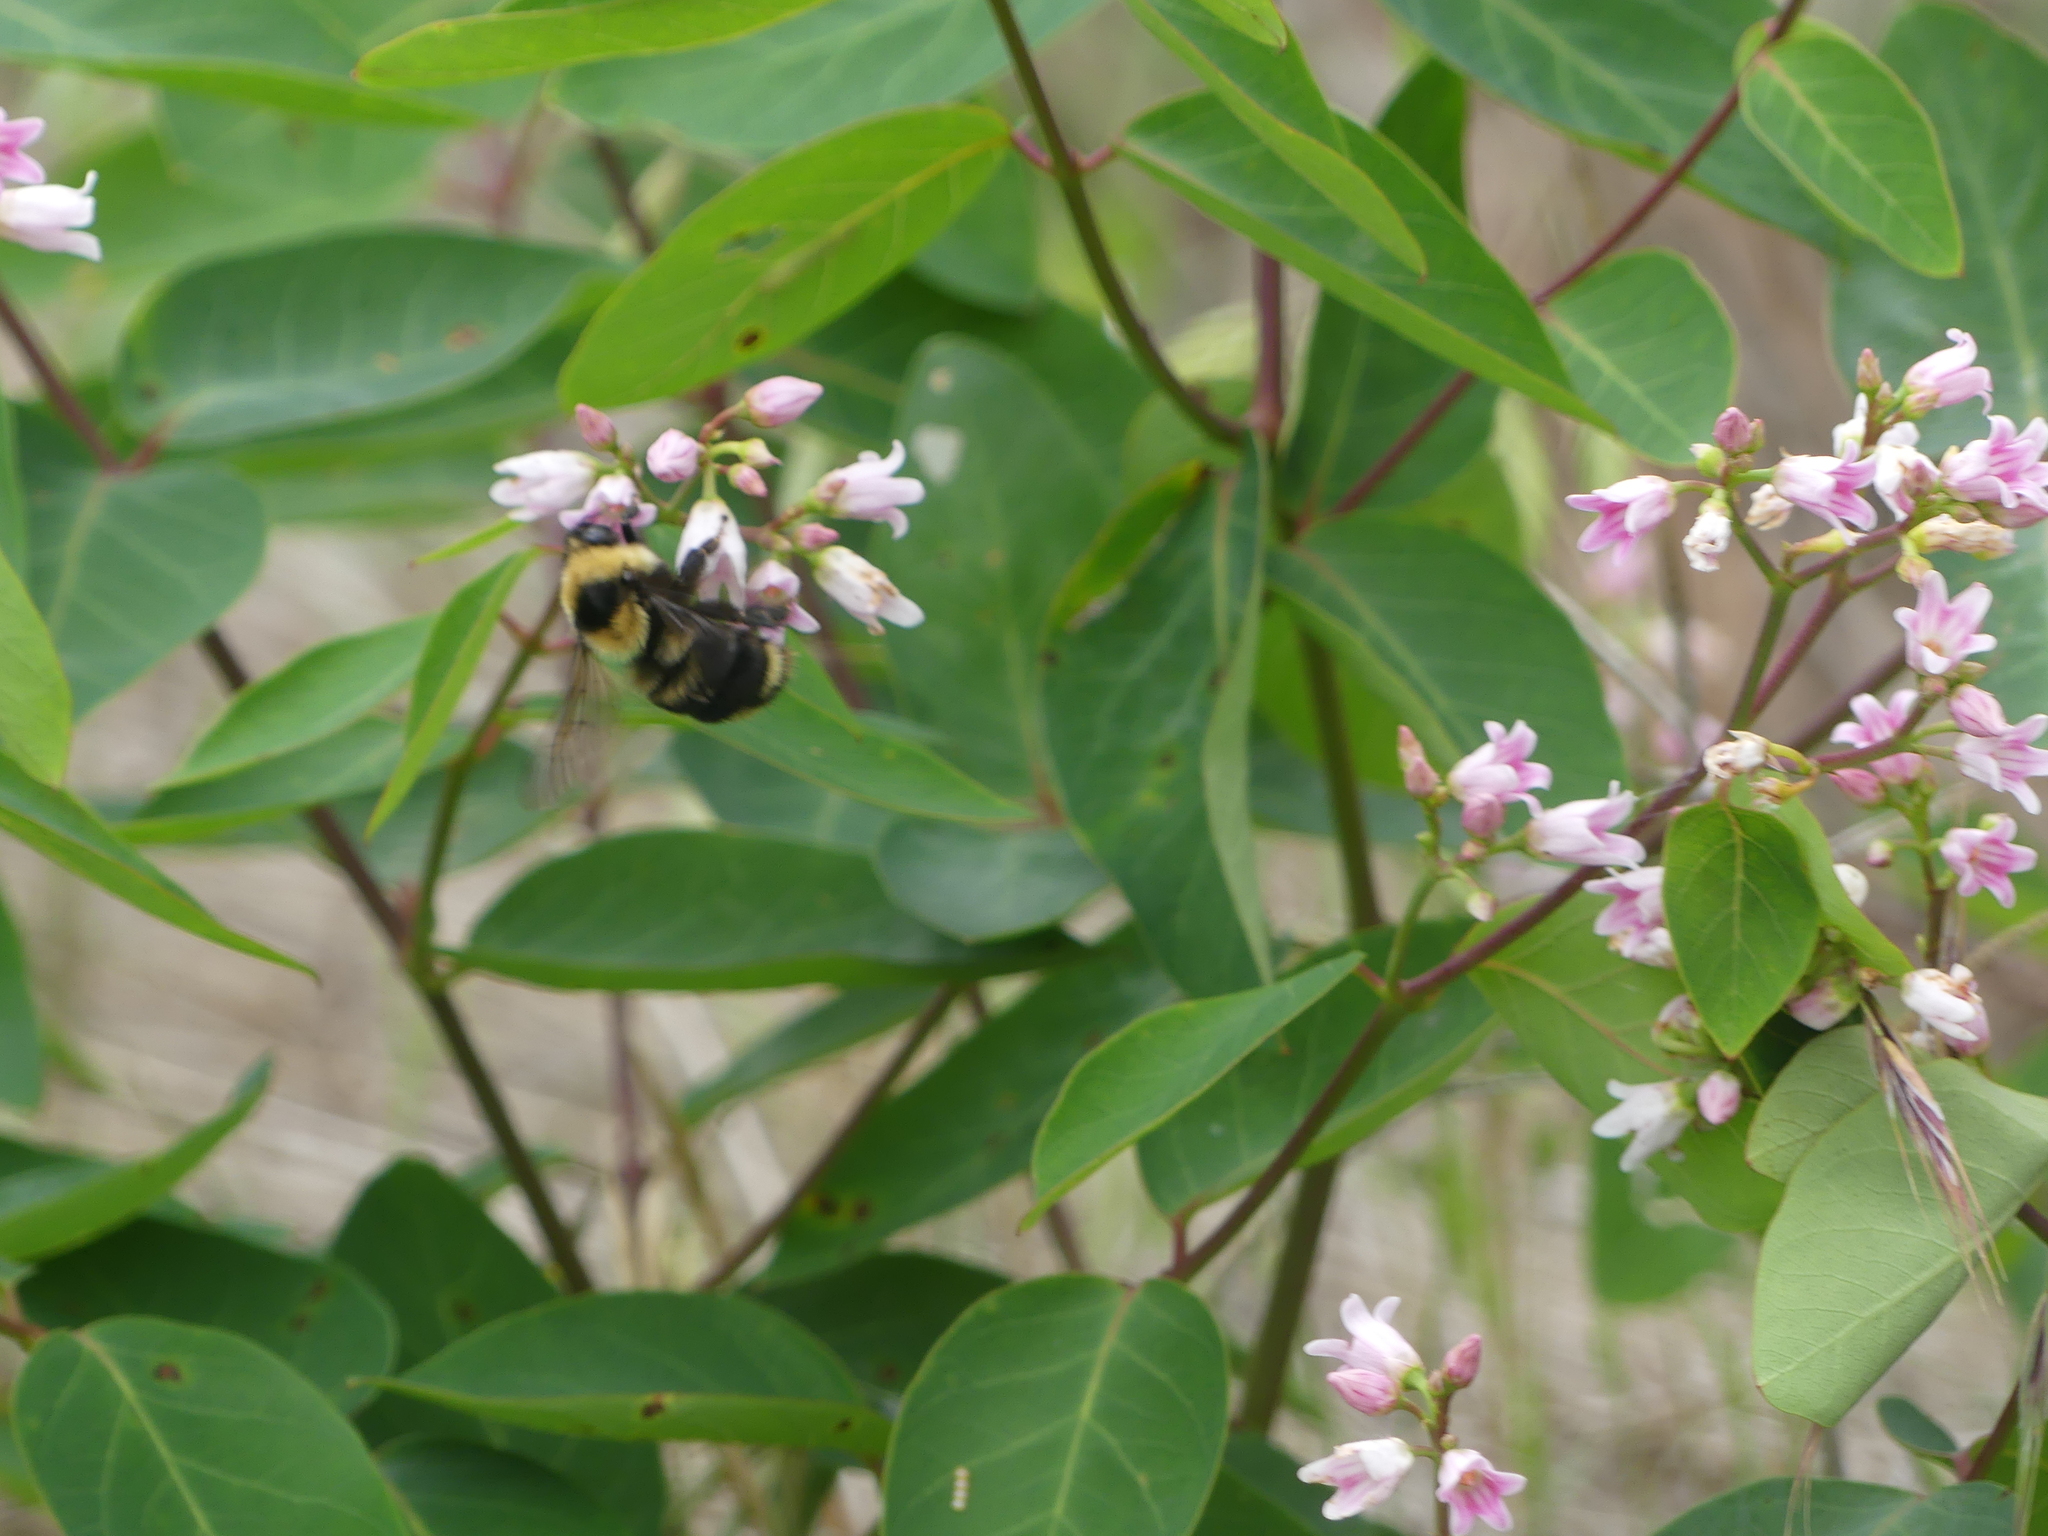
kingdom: Animalia
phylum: Arthropoda
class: Insecta
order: Hymenoptera
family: Apidae
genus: Bombus
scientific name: Bombus rufocinctus
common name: Red-belted bumble bee
